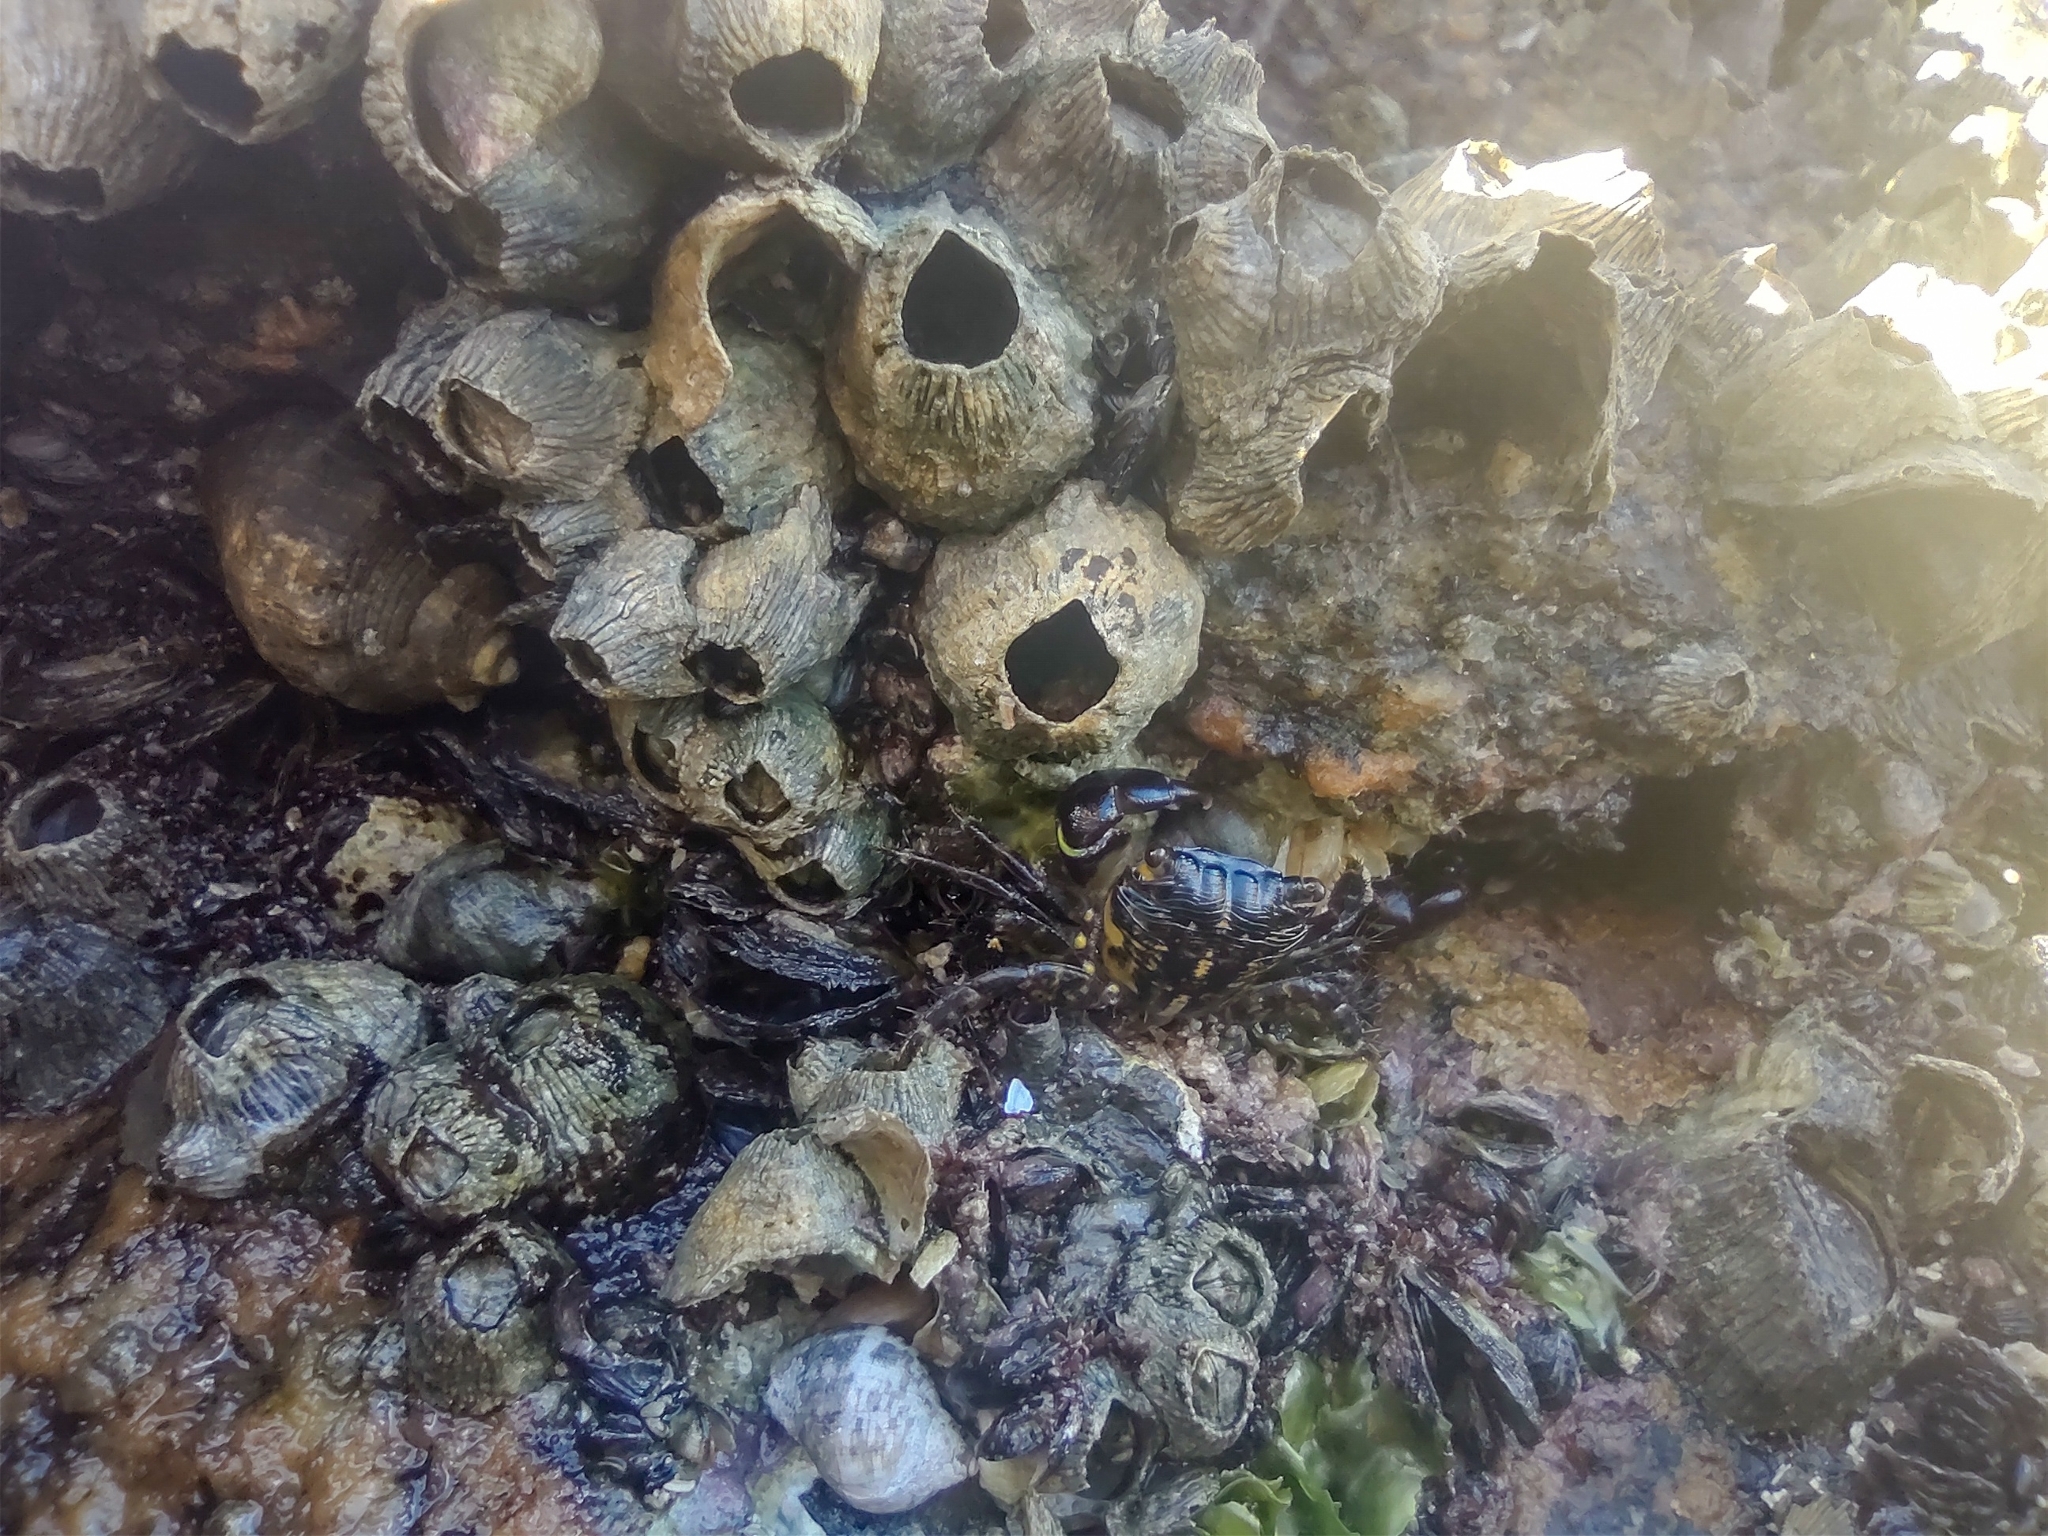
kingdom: Animalia
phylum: Arthropoda
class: Malacostraca
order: Decapoda
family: Grapsidae
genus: Pachygrapsus
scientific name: Pachygrapsus transversus
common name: Mottled shore crab
